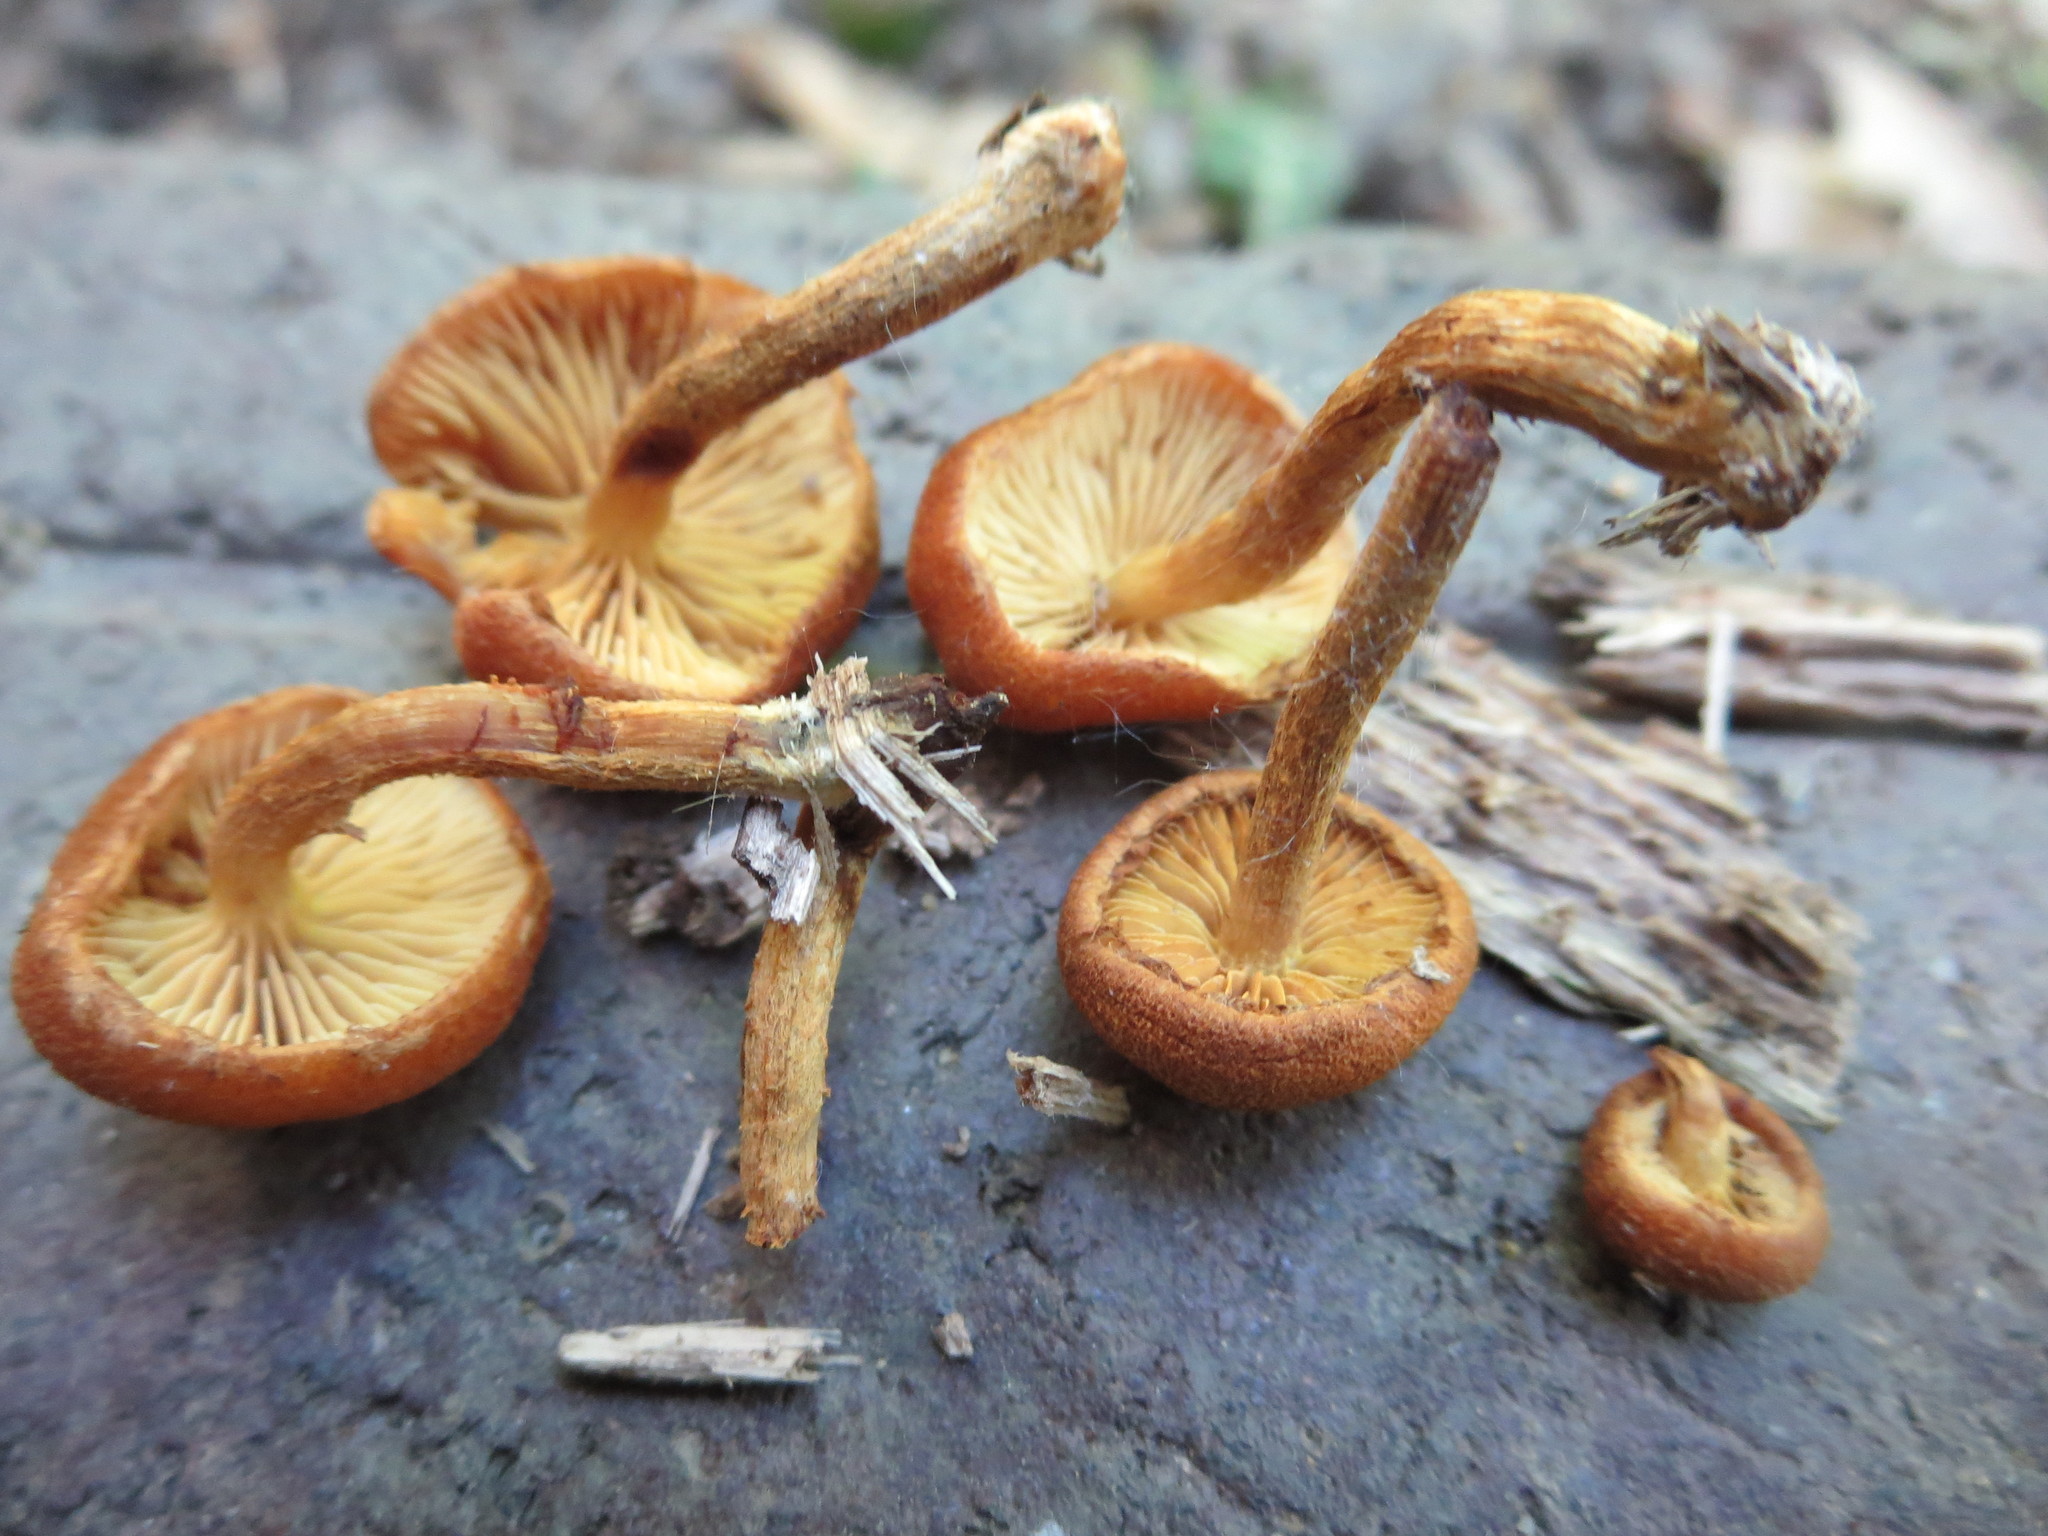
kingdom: Fungi
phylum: Basidiomycota
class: Agaricomycetes
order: Agaricales
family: Strophariaceae
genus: Pholiota
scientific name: Pholiota granulosa
